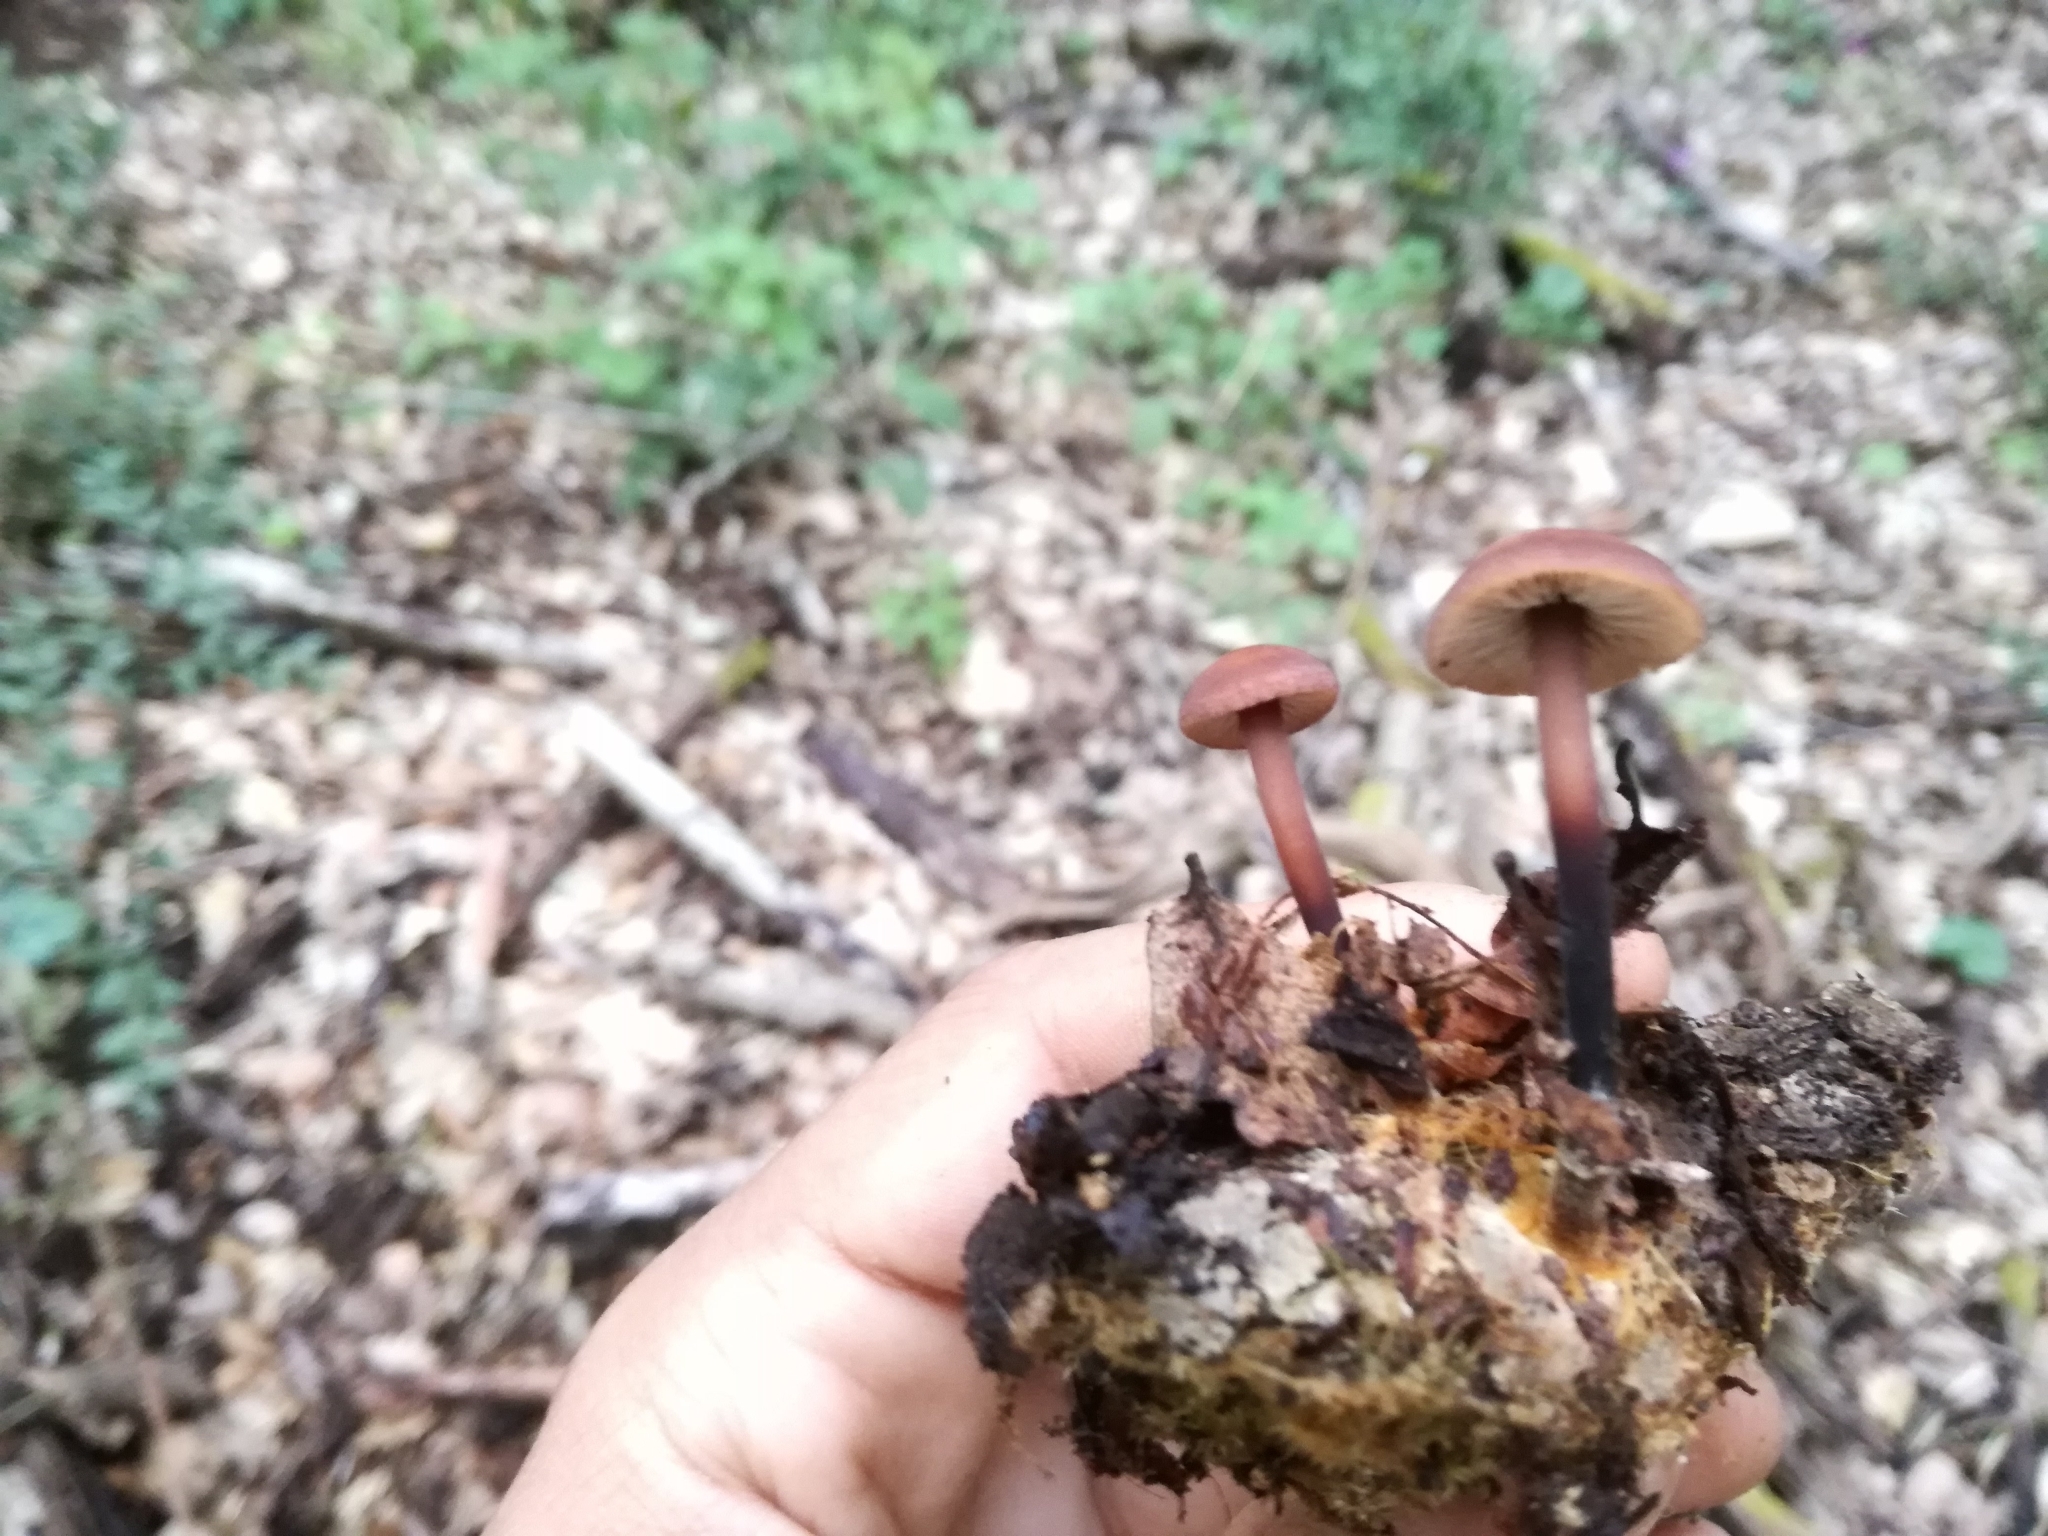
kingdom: Fungi
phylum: Basidiomycota
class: Agaricomycetes
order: Agaricales
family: Omphalotaceae
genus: Gymnopus
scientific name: Gymnopus brassicolens
